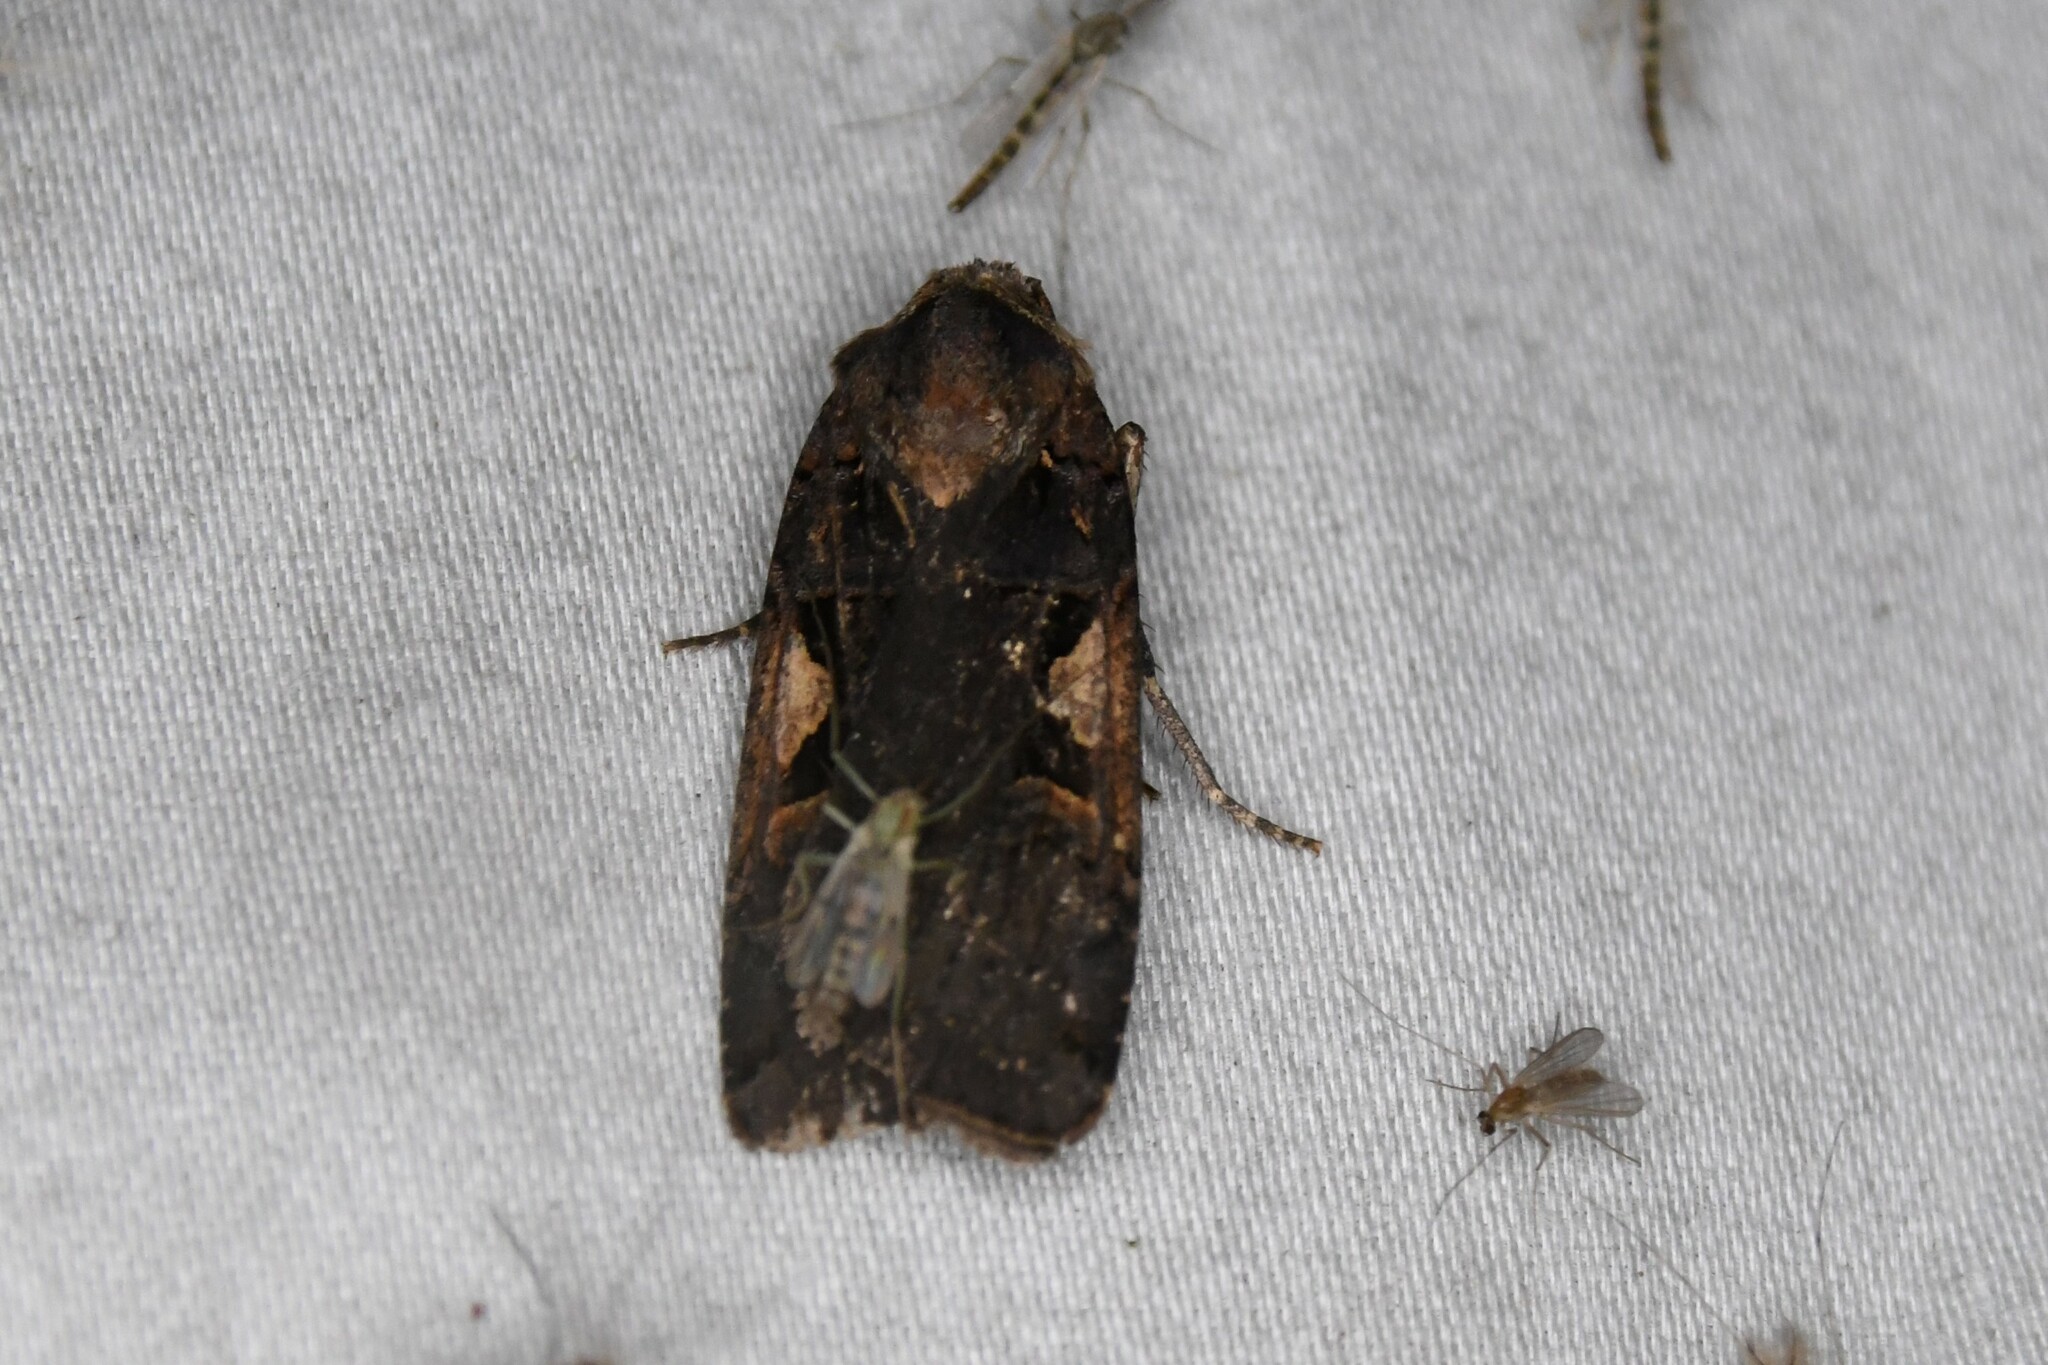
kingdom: Animalia
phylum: Arthropoda
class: Insecta
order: Lepidoptera
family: Noctuidae
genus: Xestia
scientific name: Xestia
